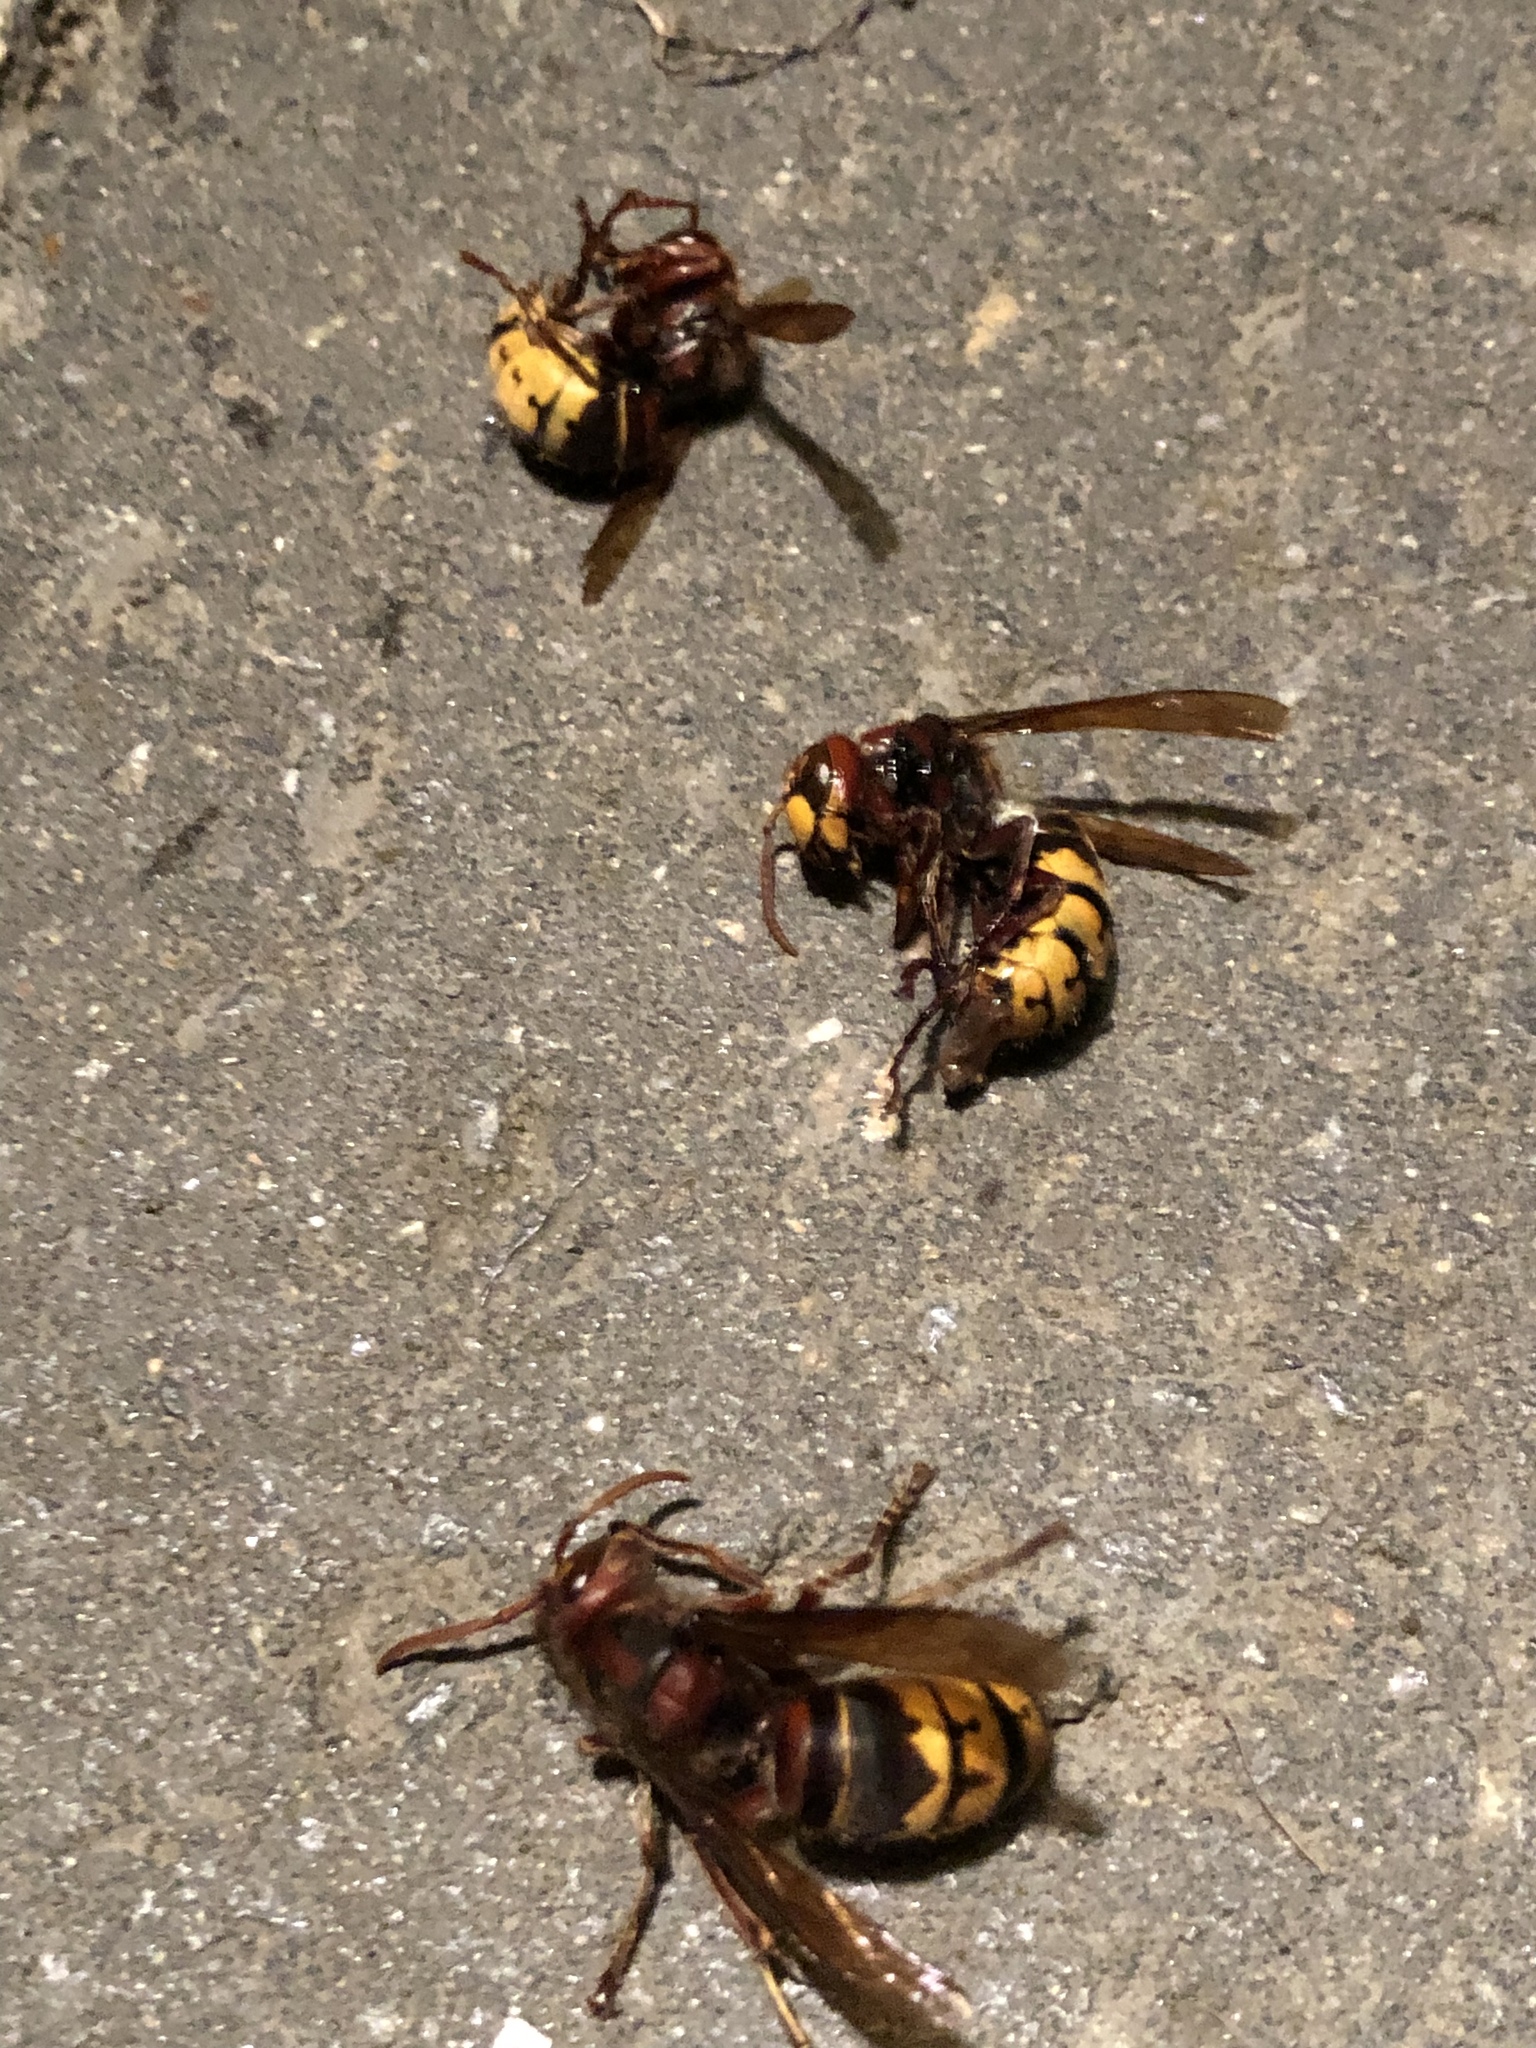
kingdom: Animalia
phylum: Arthropoda
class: Insecta
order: Hymenoptera
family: Vespidae
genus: Vespa
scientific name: Vespa crabro
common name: Hornet
